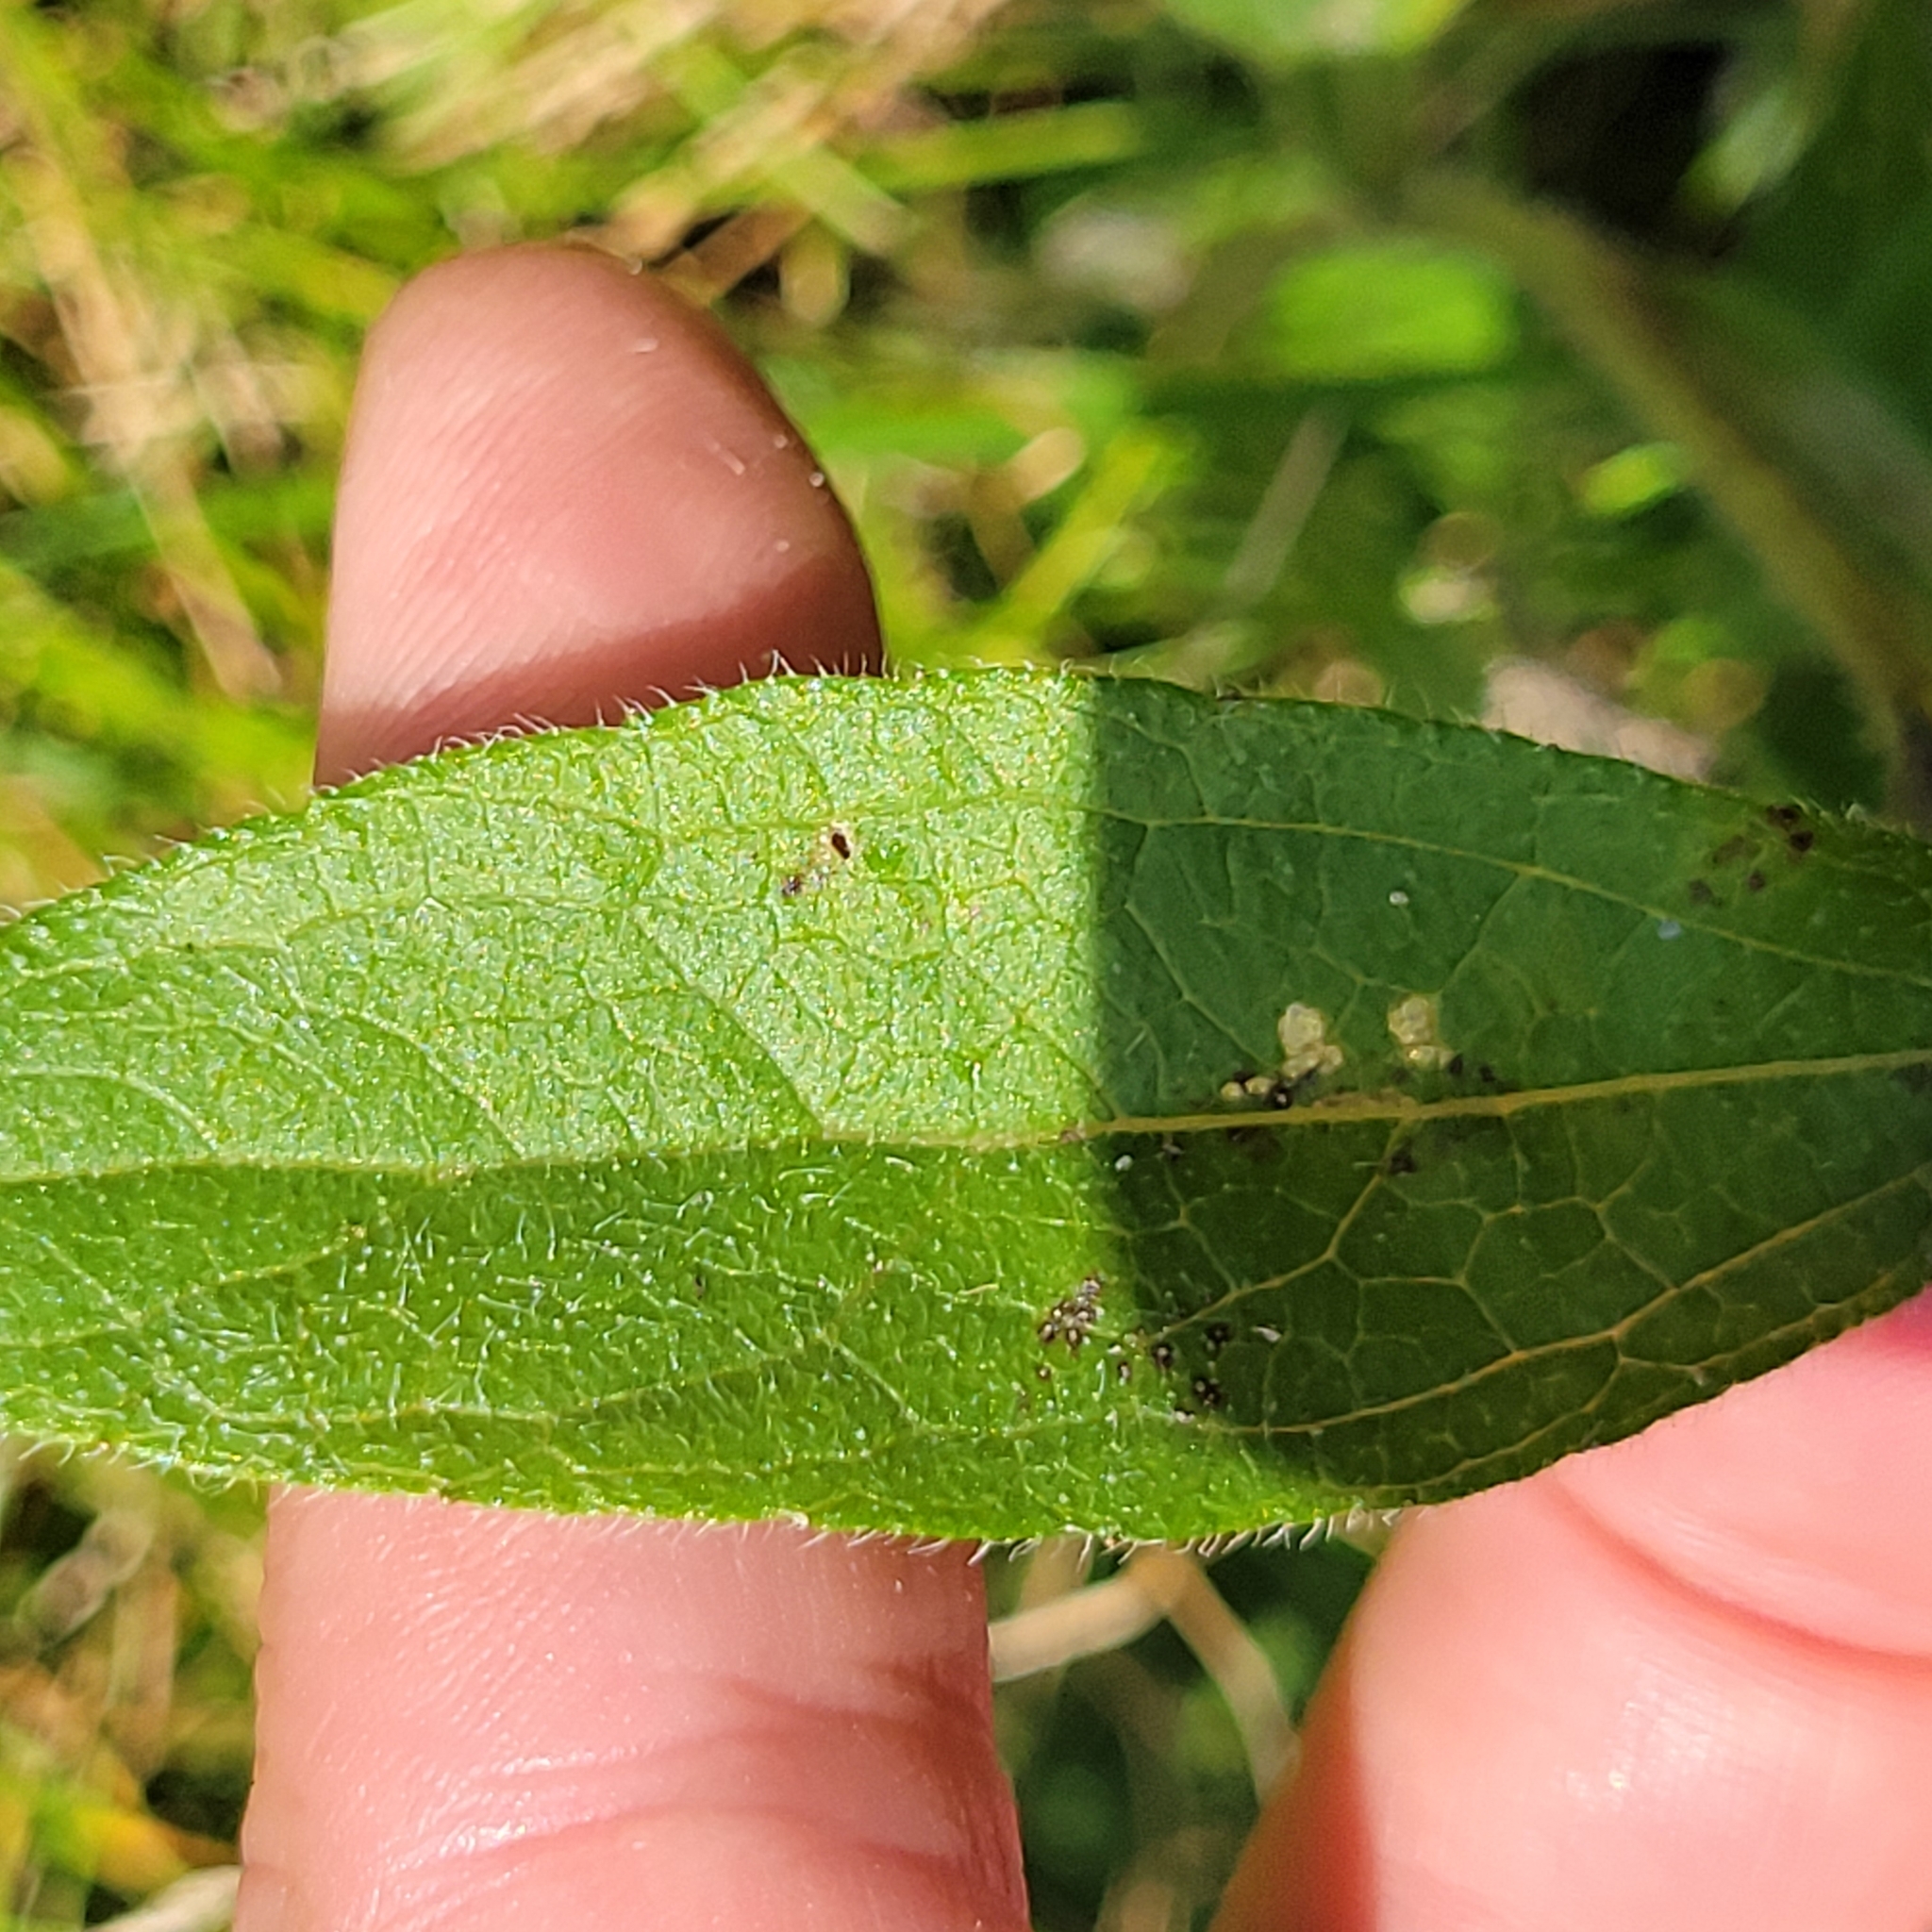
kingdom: Plantae
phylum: Tracheophyta
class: Magnoliopsida
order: Asterales
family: Asteraceae
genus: Rudbeckia
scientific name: Rudbeckia hirta
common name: Black-eyed-susan
